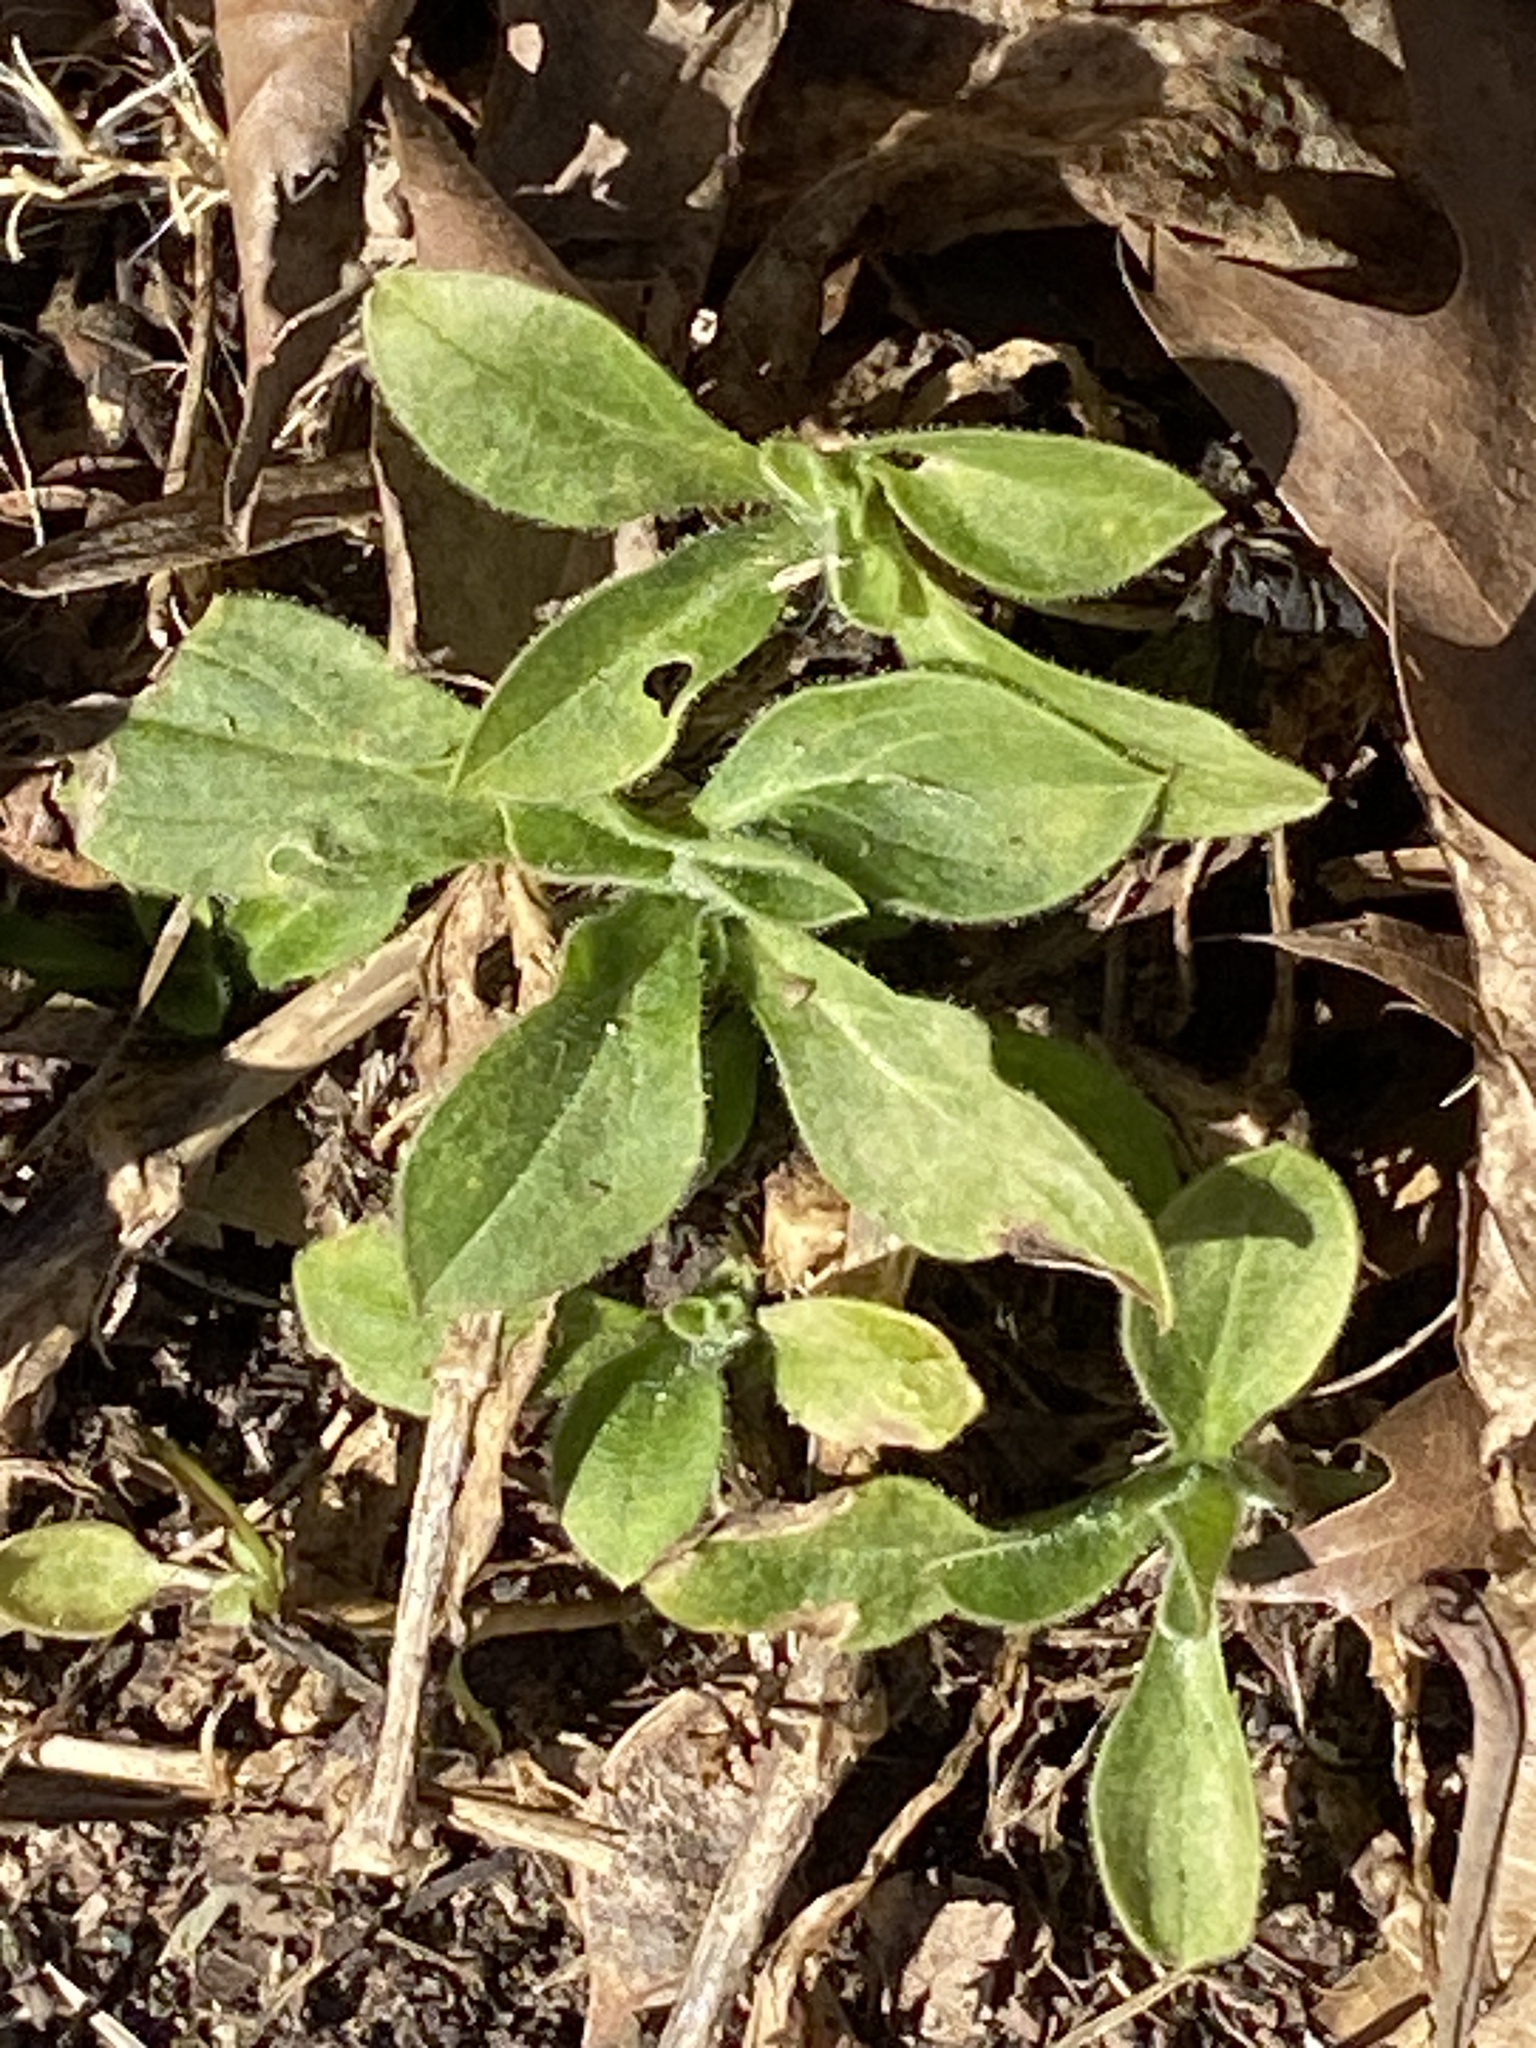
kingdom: Plantae
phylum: Tracheophyta
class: Magnoliopsida
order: Caryophyllales
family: Caryophyllaceae
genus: Silene
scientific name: Silene latifolia
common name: White campion
